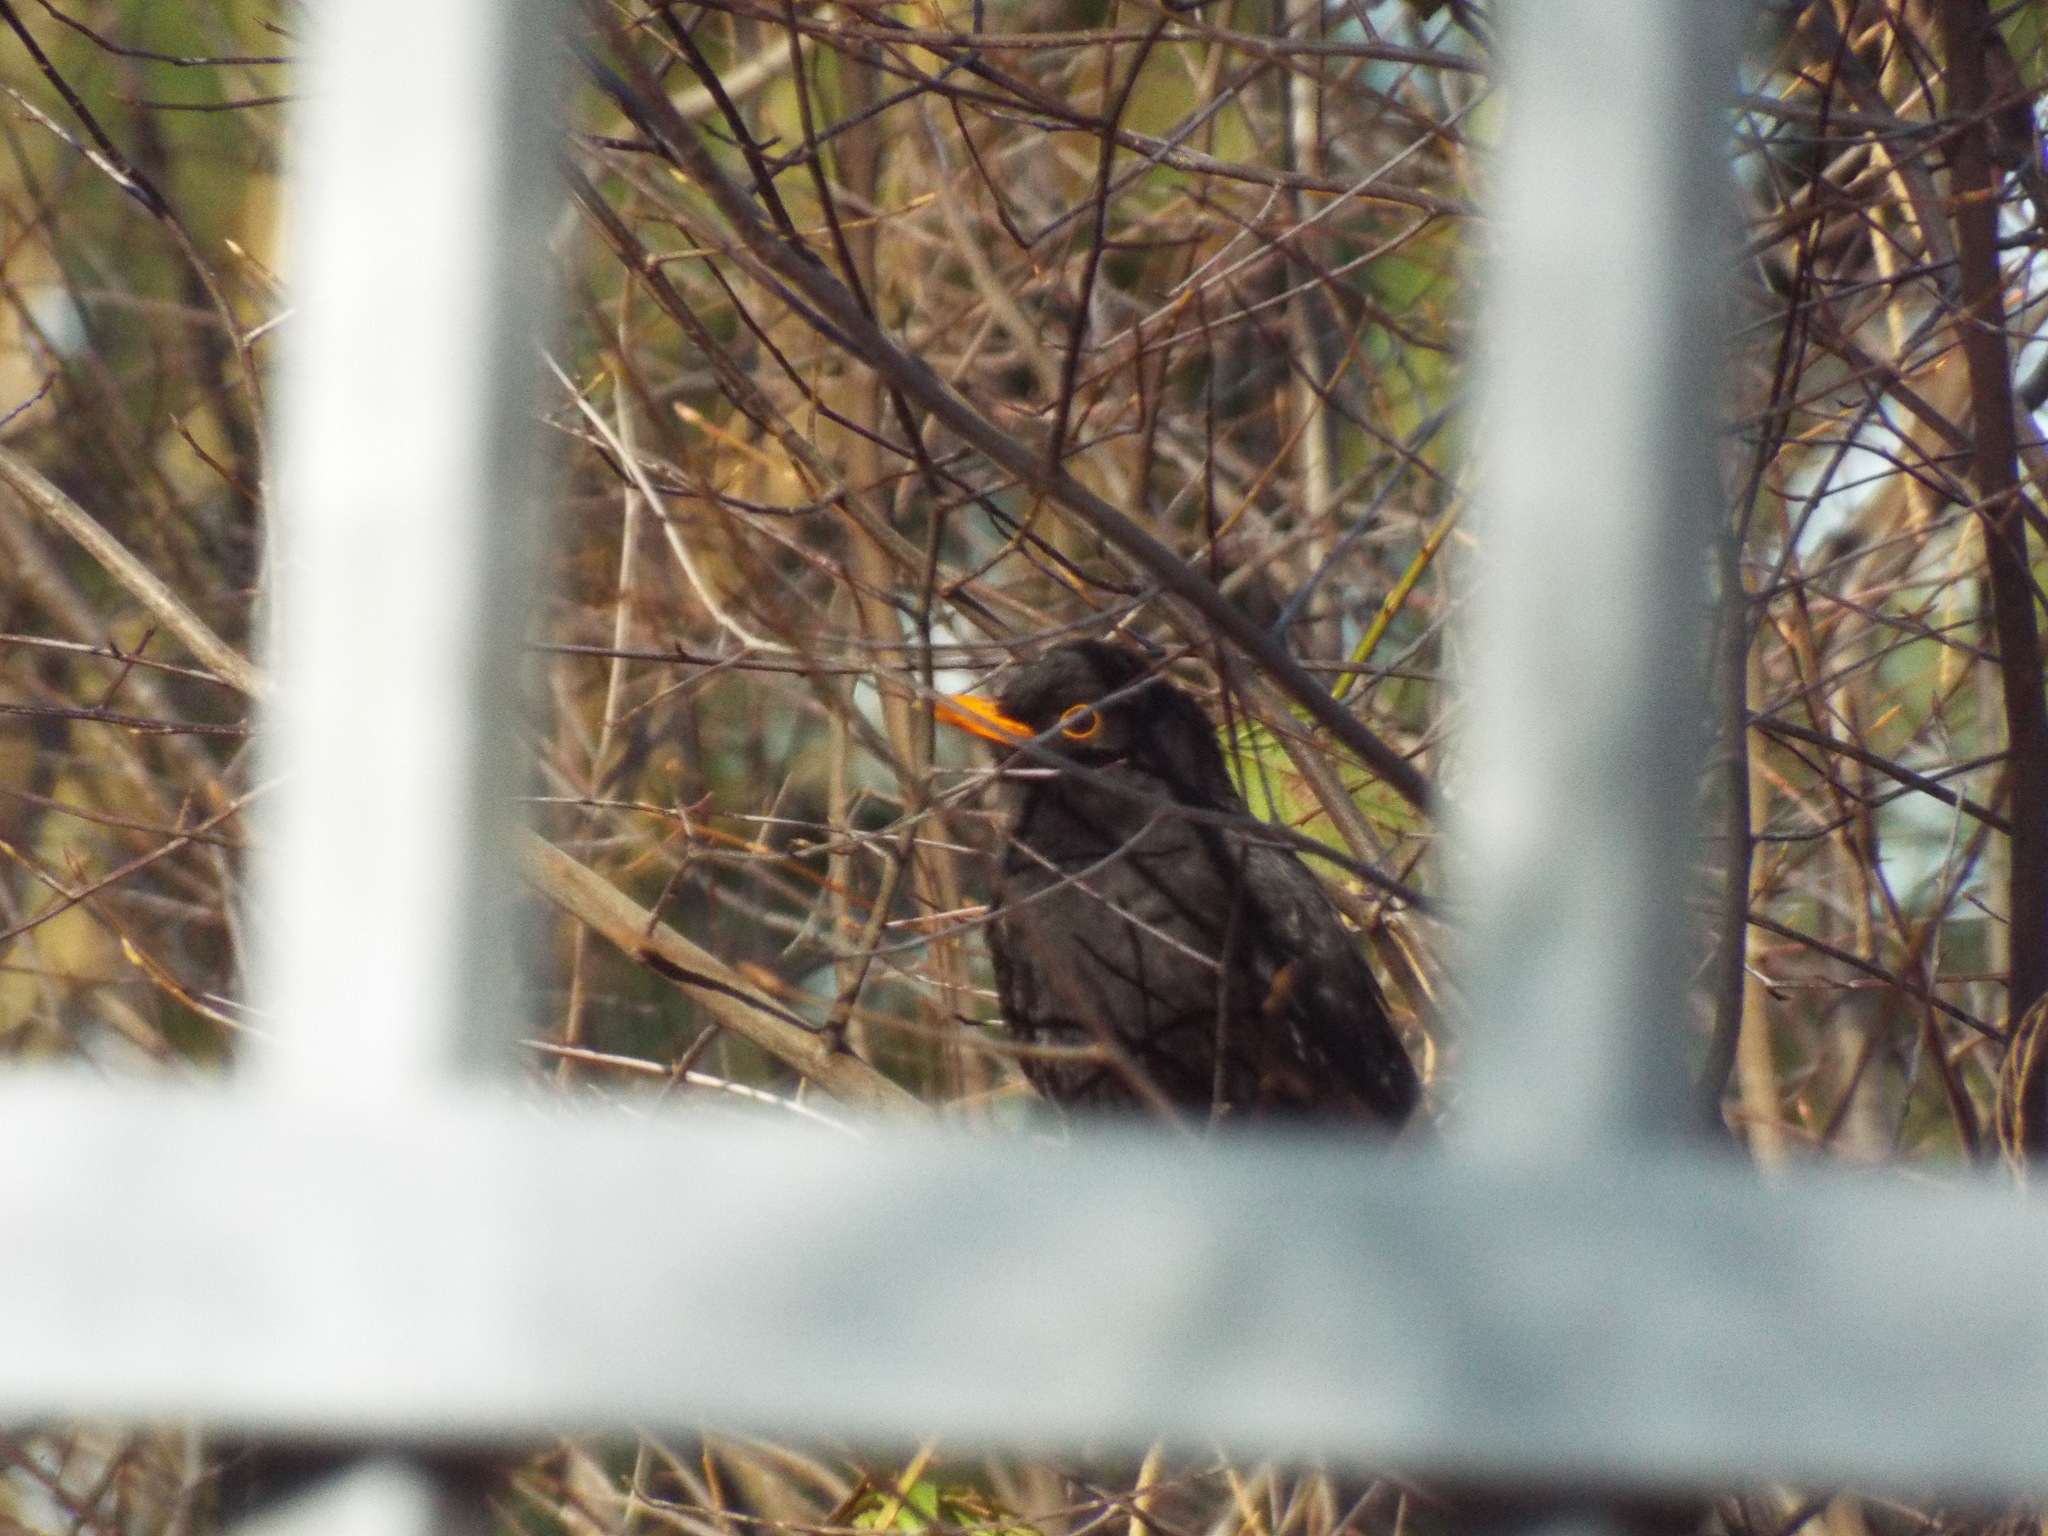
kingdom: Animalia
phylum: Chordata
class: Aves
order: Passeriformes
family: Turdidae
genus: Turdus
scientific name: Turdus merula
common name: Common blackbird
